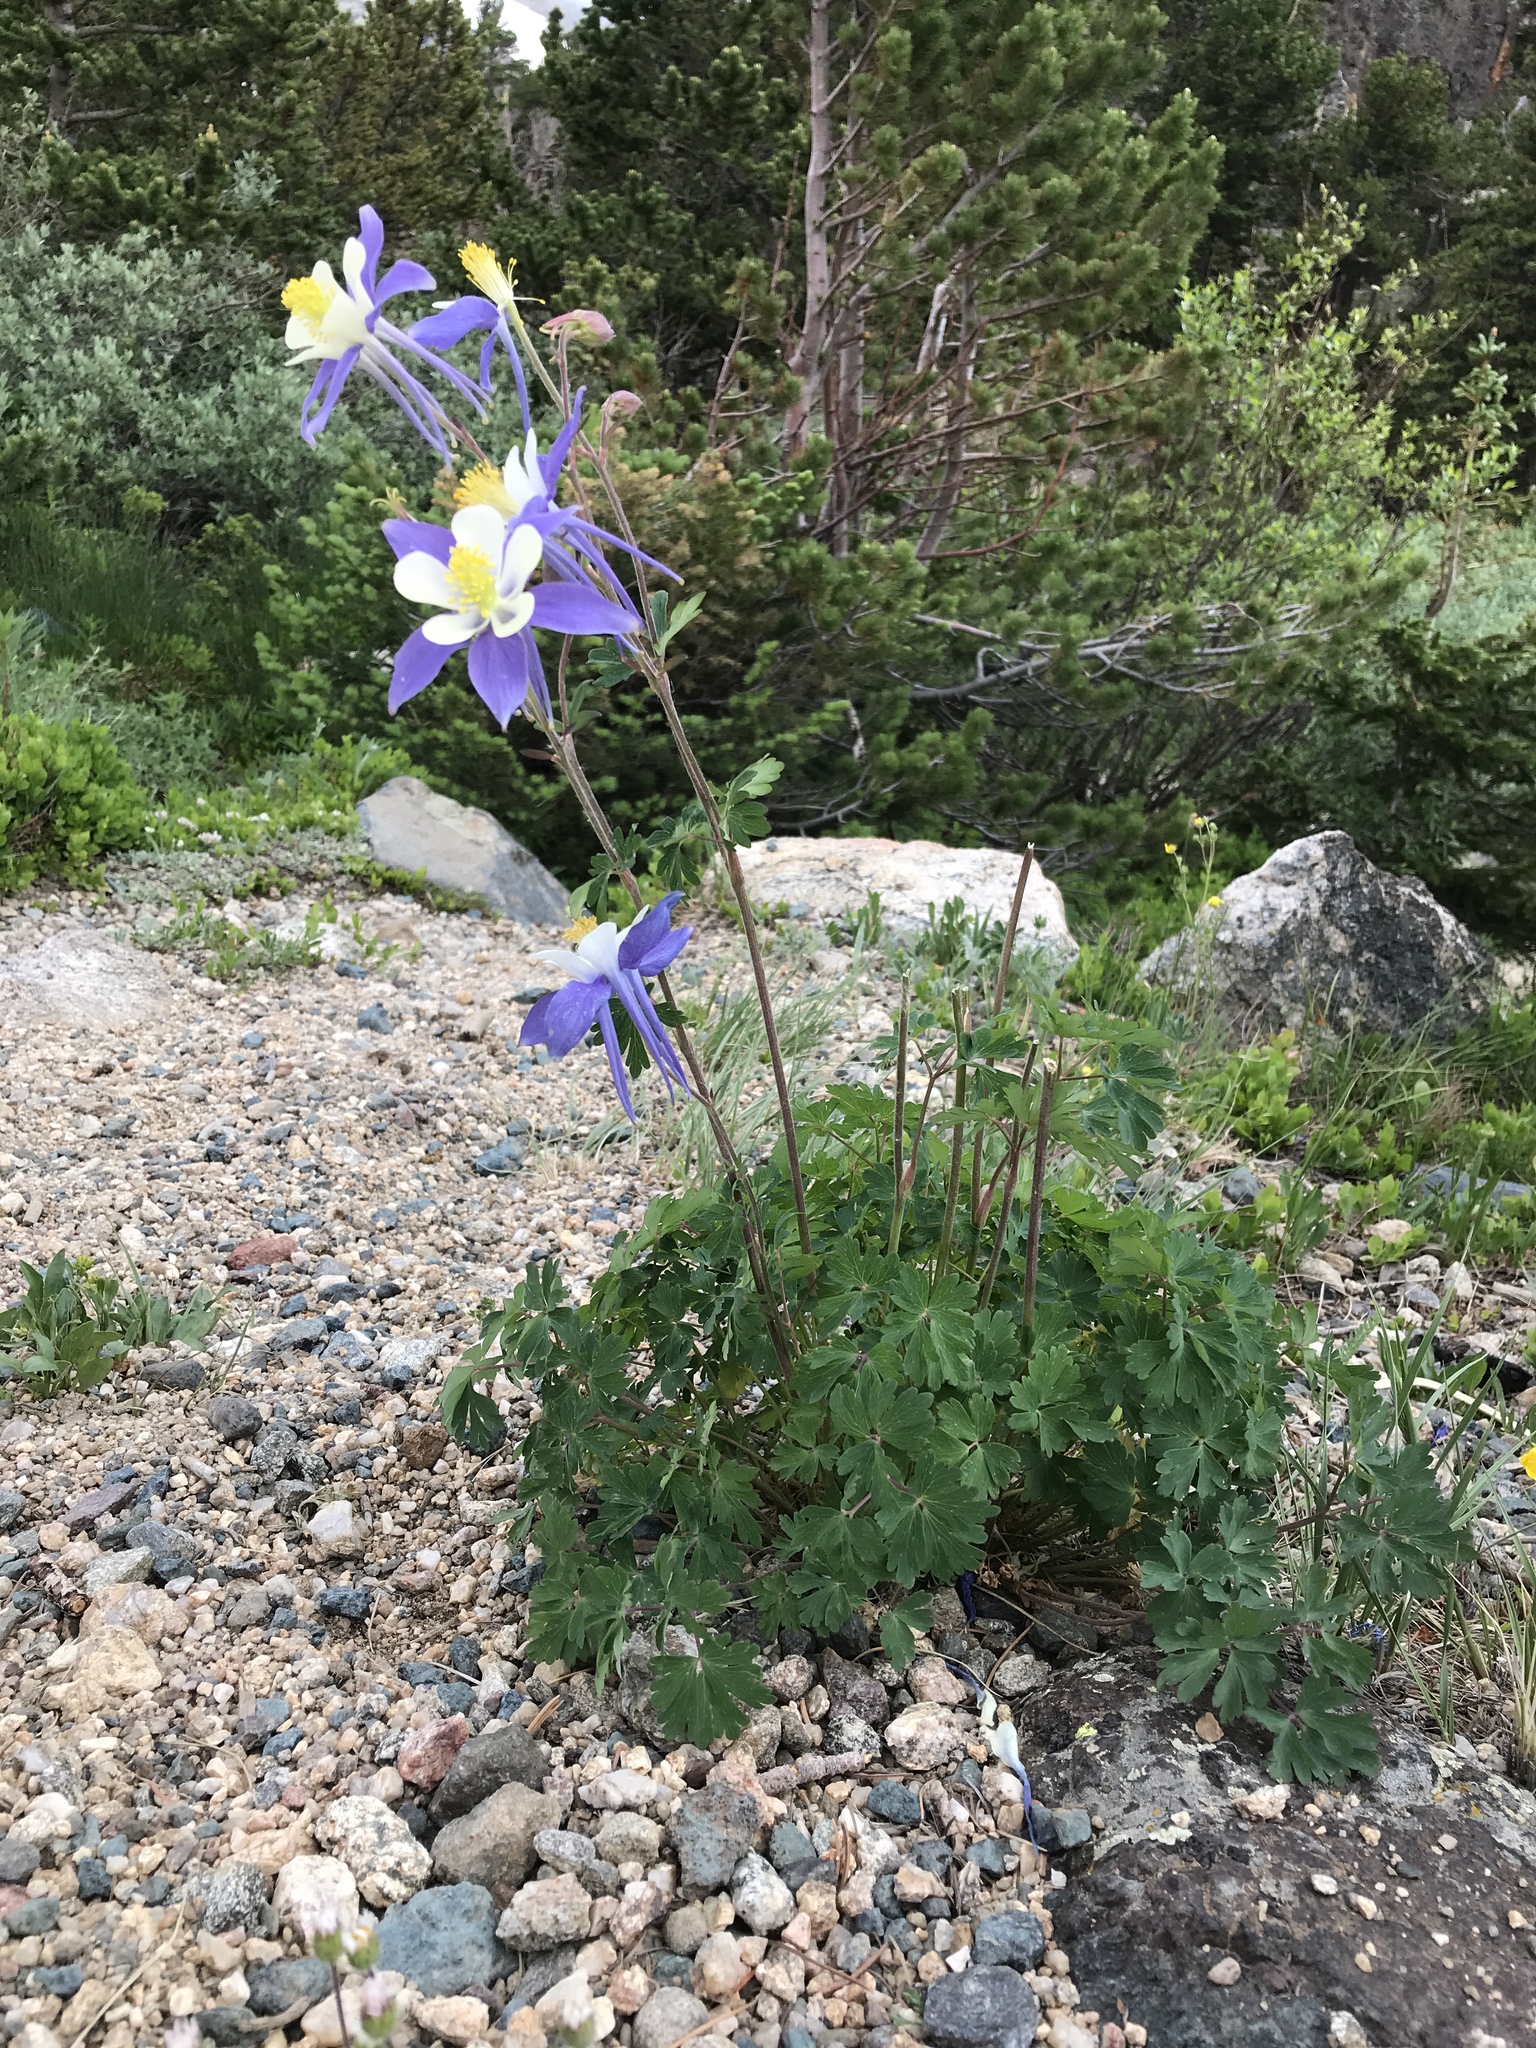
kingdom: Plantae
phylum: Tracheophyta
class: Magnoliopsida
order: Ranunculales
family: Ranunculaceae
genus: Aquilegia
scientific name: Aquilegia coerulea
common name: Rocky mountain columbine
